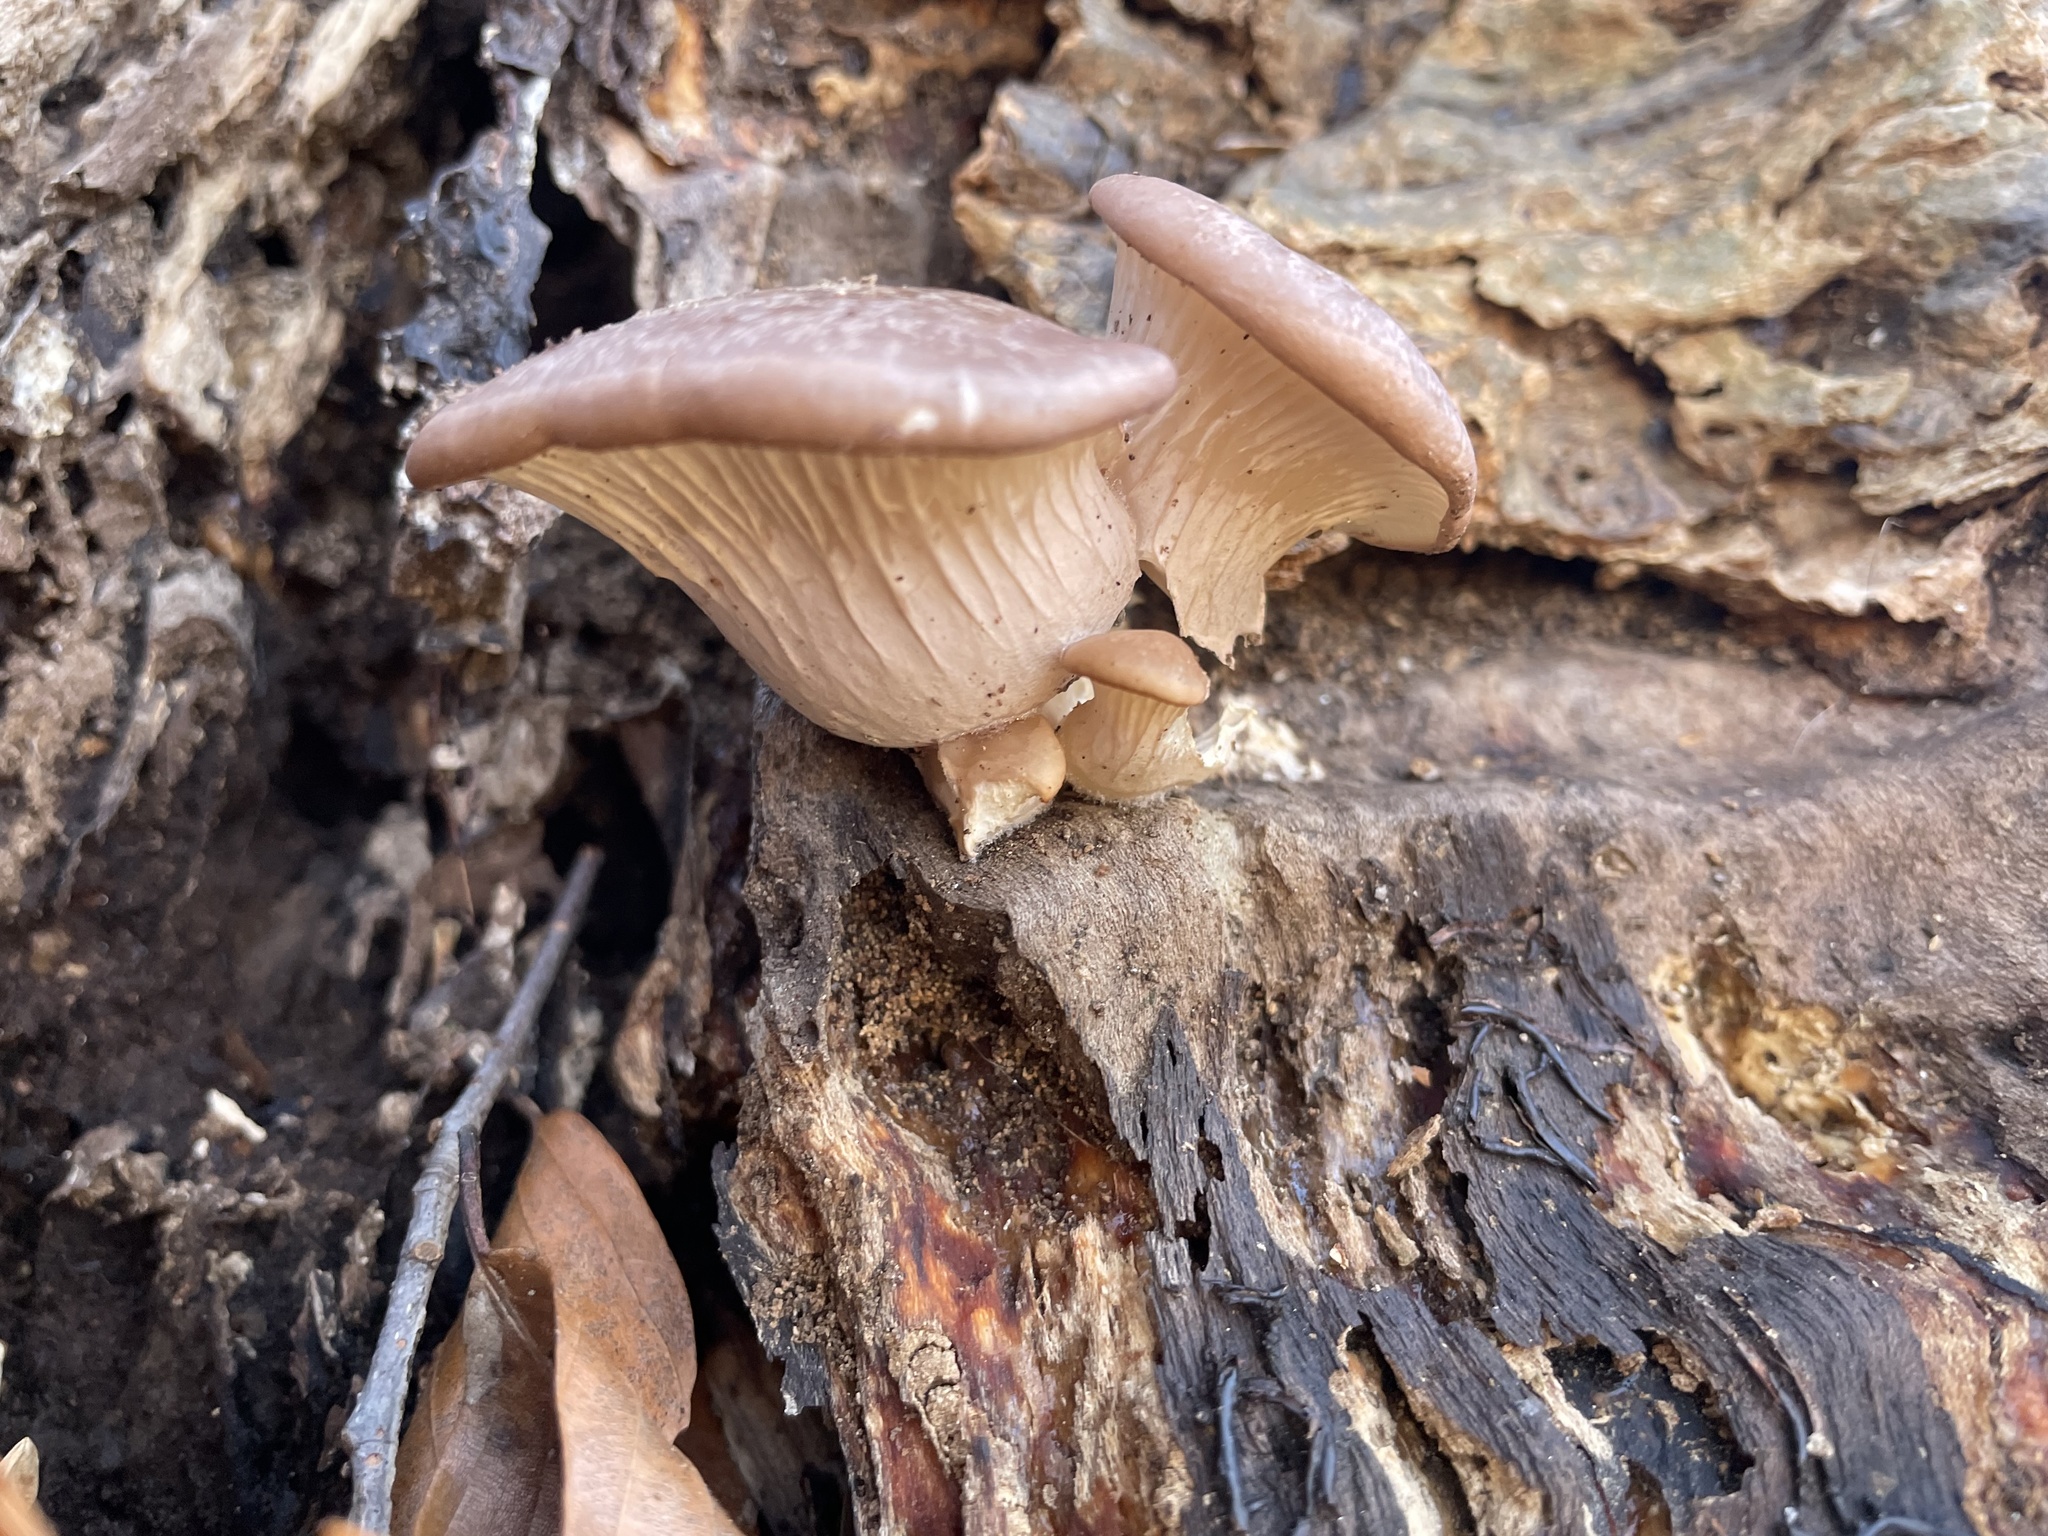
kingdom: Fungi
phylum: Basidiomycota
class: Agaricomycetes
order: Agaricales
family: Pleurotaceae
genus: Pleurotus
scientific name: Pleurotus ostreatus
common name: Oyster mushroom
